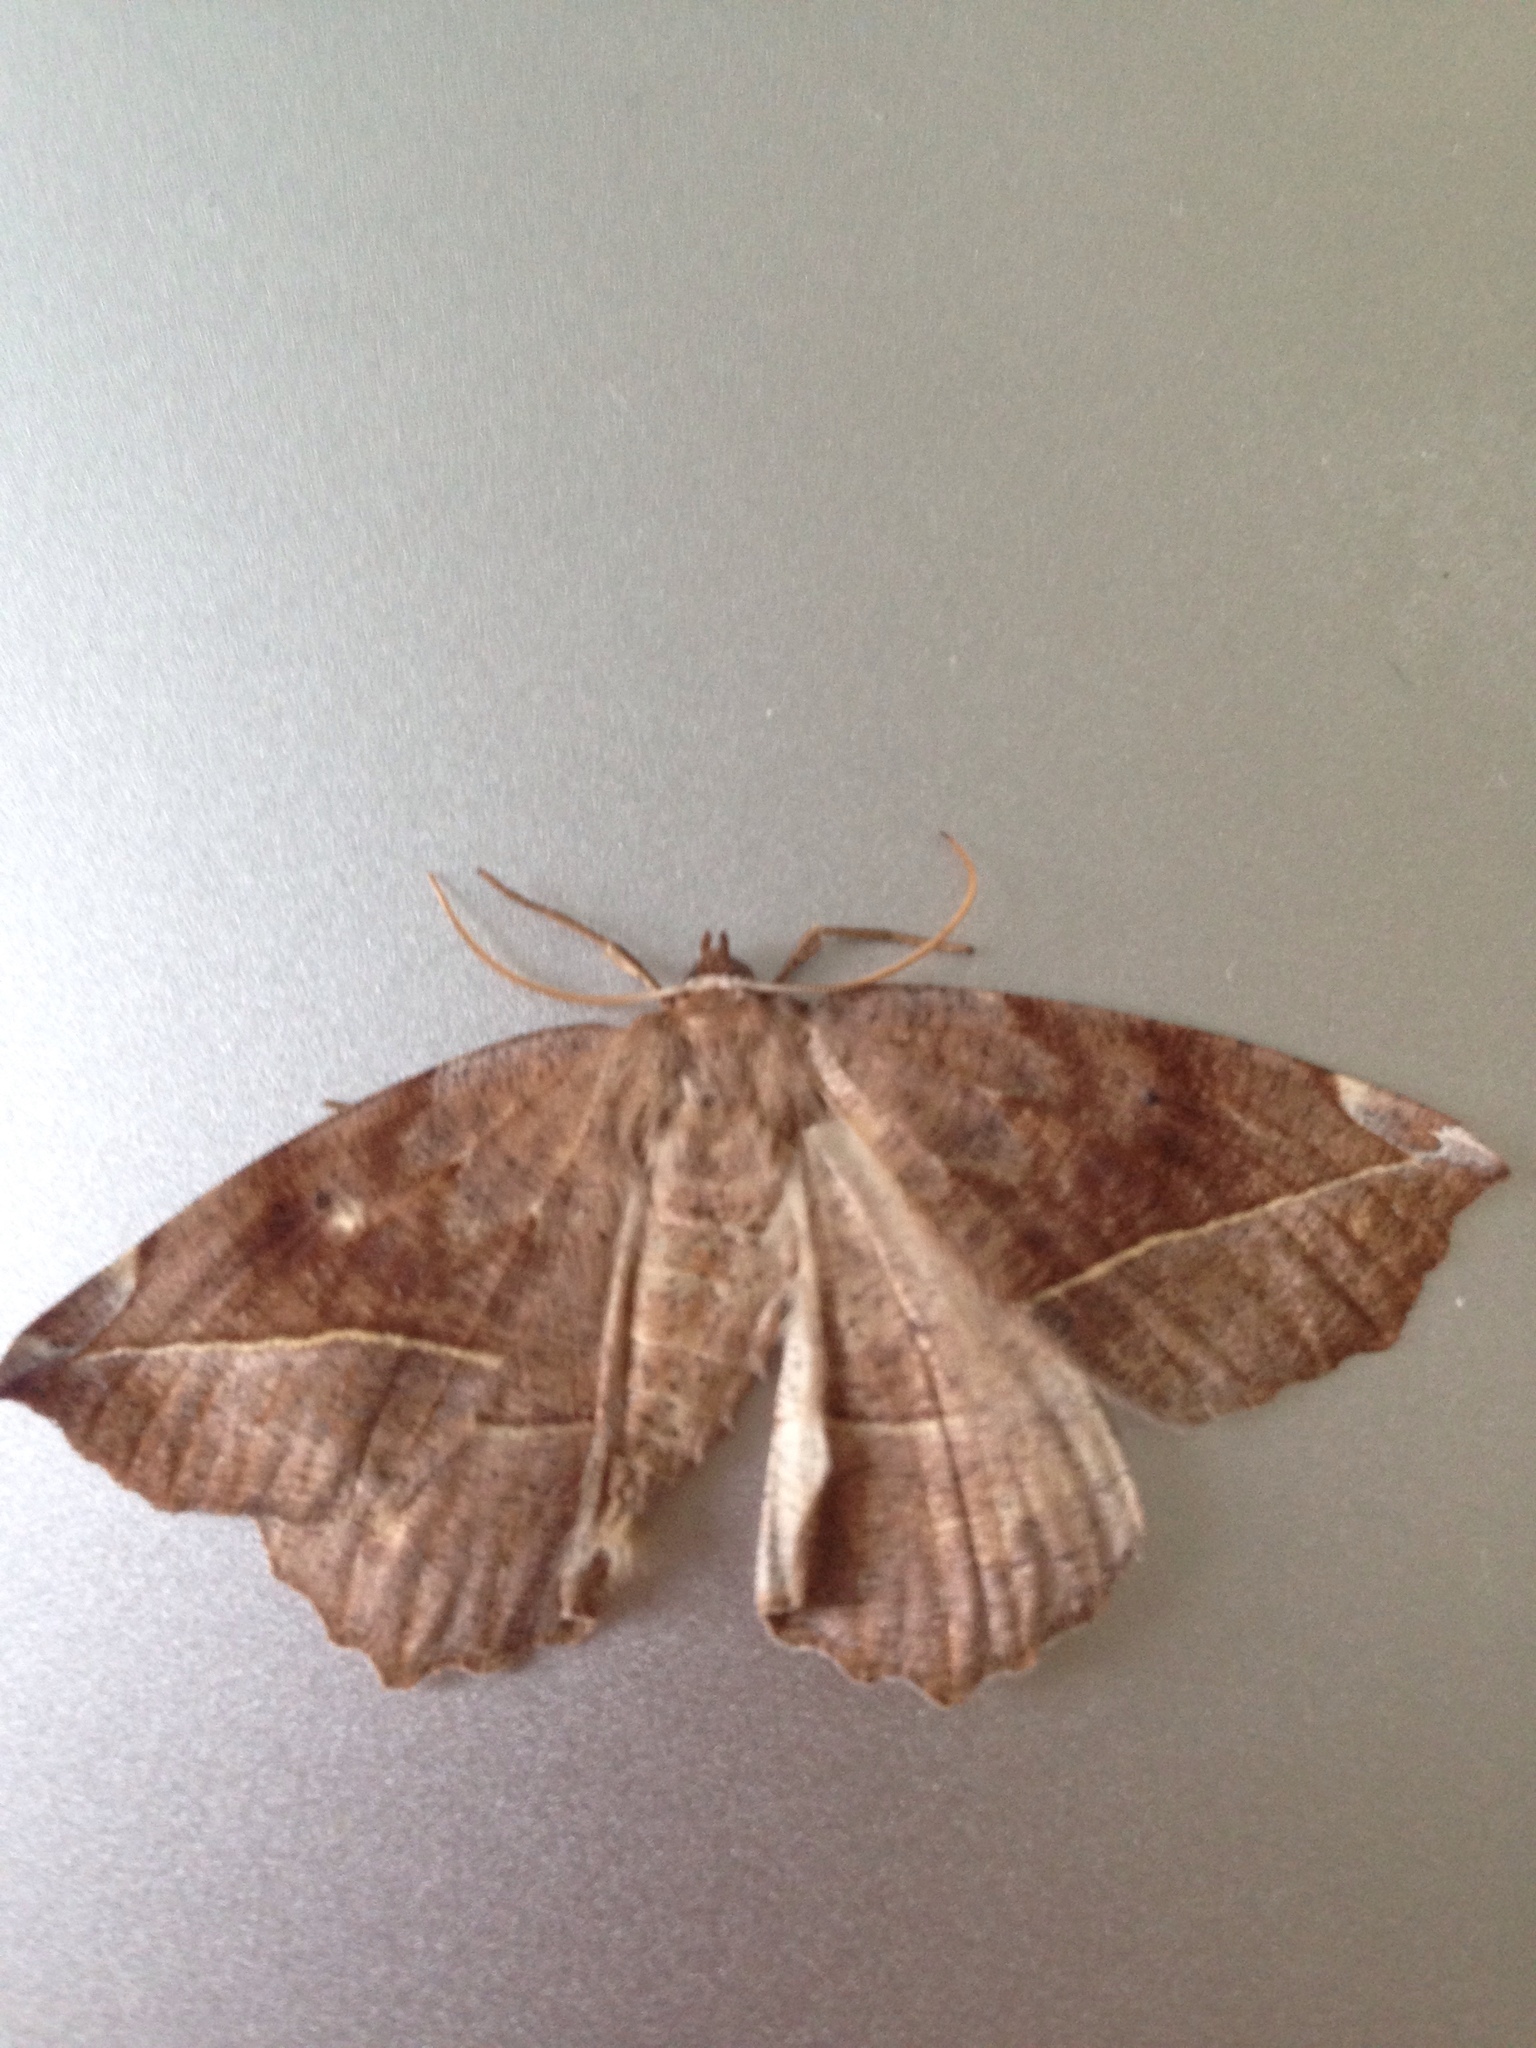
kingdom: Animalia
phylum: Arthropoda
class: Insecta
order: Lepidoptera
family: Geometridae
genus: Eutrapela
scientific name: Eutrapela clemataria
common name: Curved-toothed geometer
